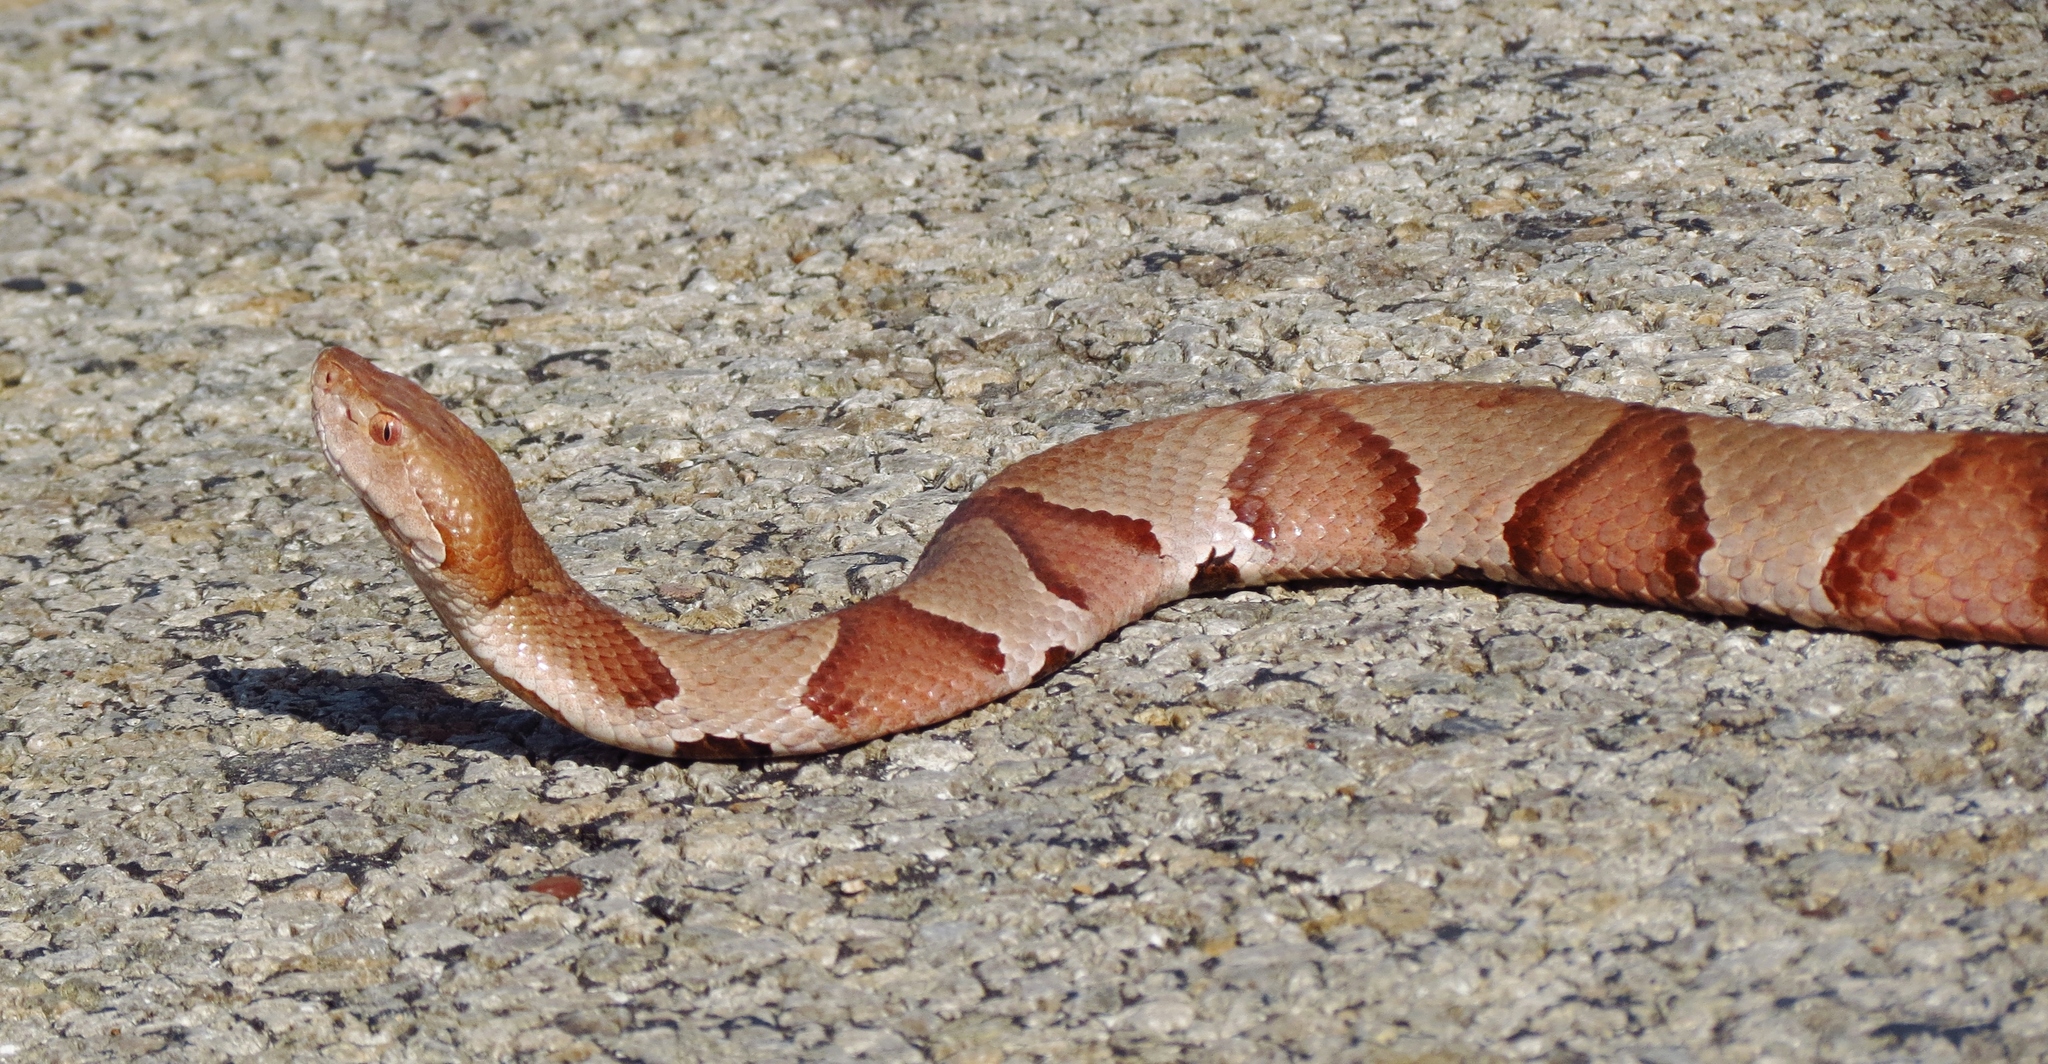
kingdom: Animalia
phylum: Chordata
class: Squamata
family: Viperidae
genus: Agkistrodon
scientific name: Agkistrodon contortrix
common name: Northern copperhead
